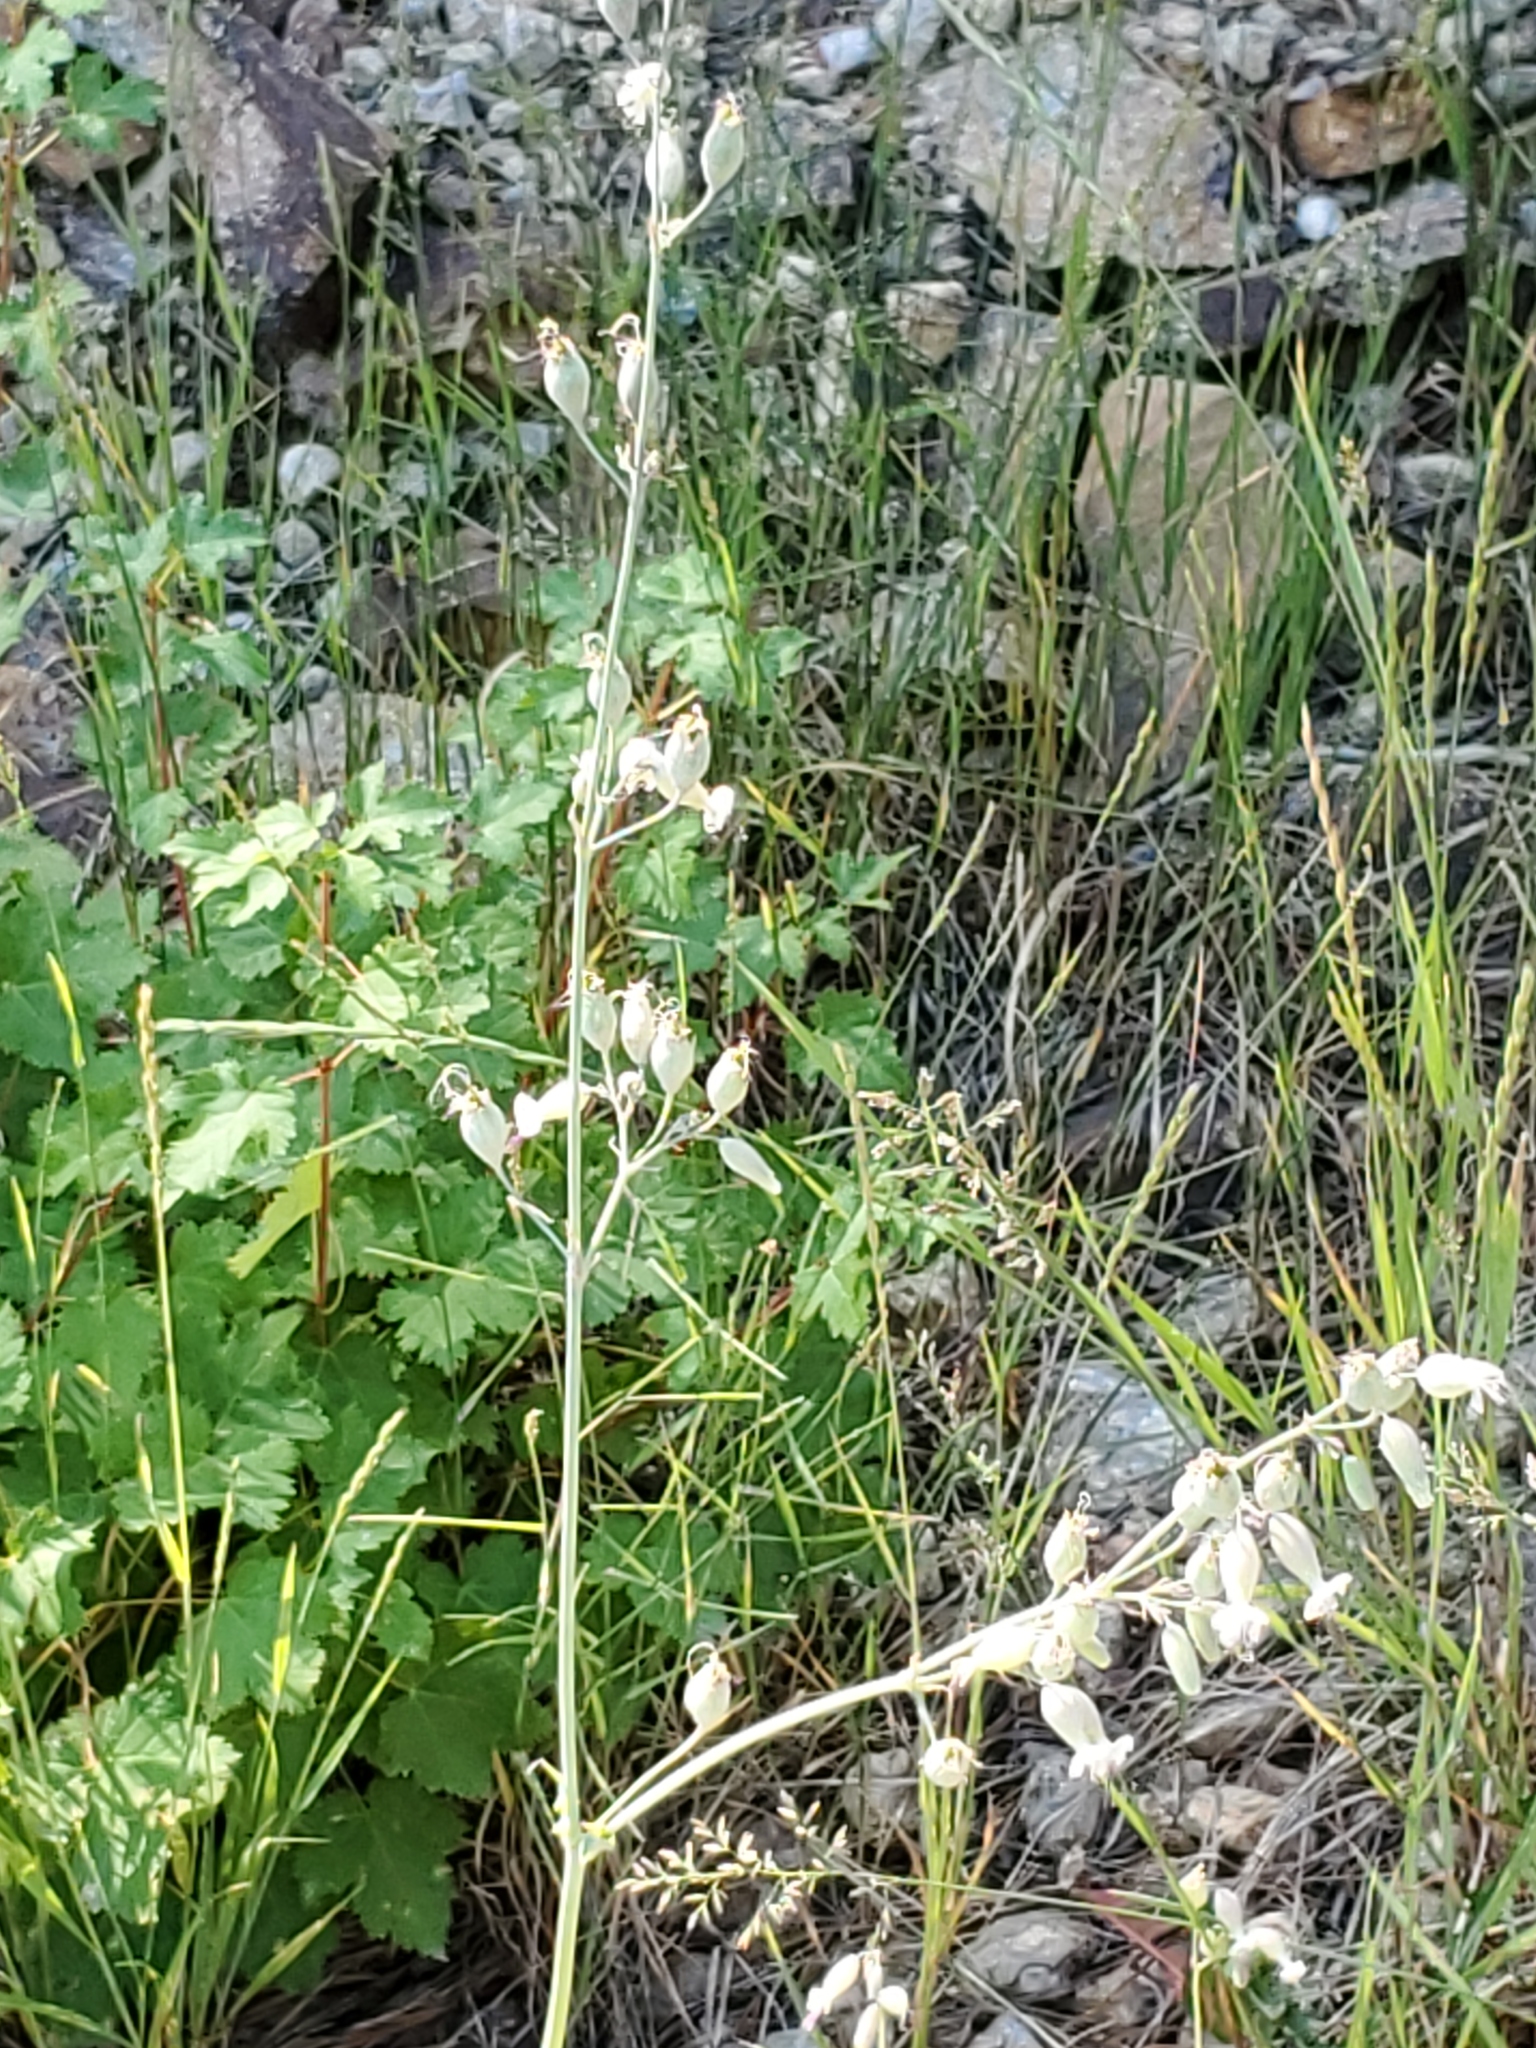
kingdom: Plantae
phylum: Tracheophyta
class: Magnoliopsida
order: Caryophyllales
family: Caryophyllaceae
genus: Silene
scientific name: Silene csereii
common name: Balkan catchfly
